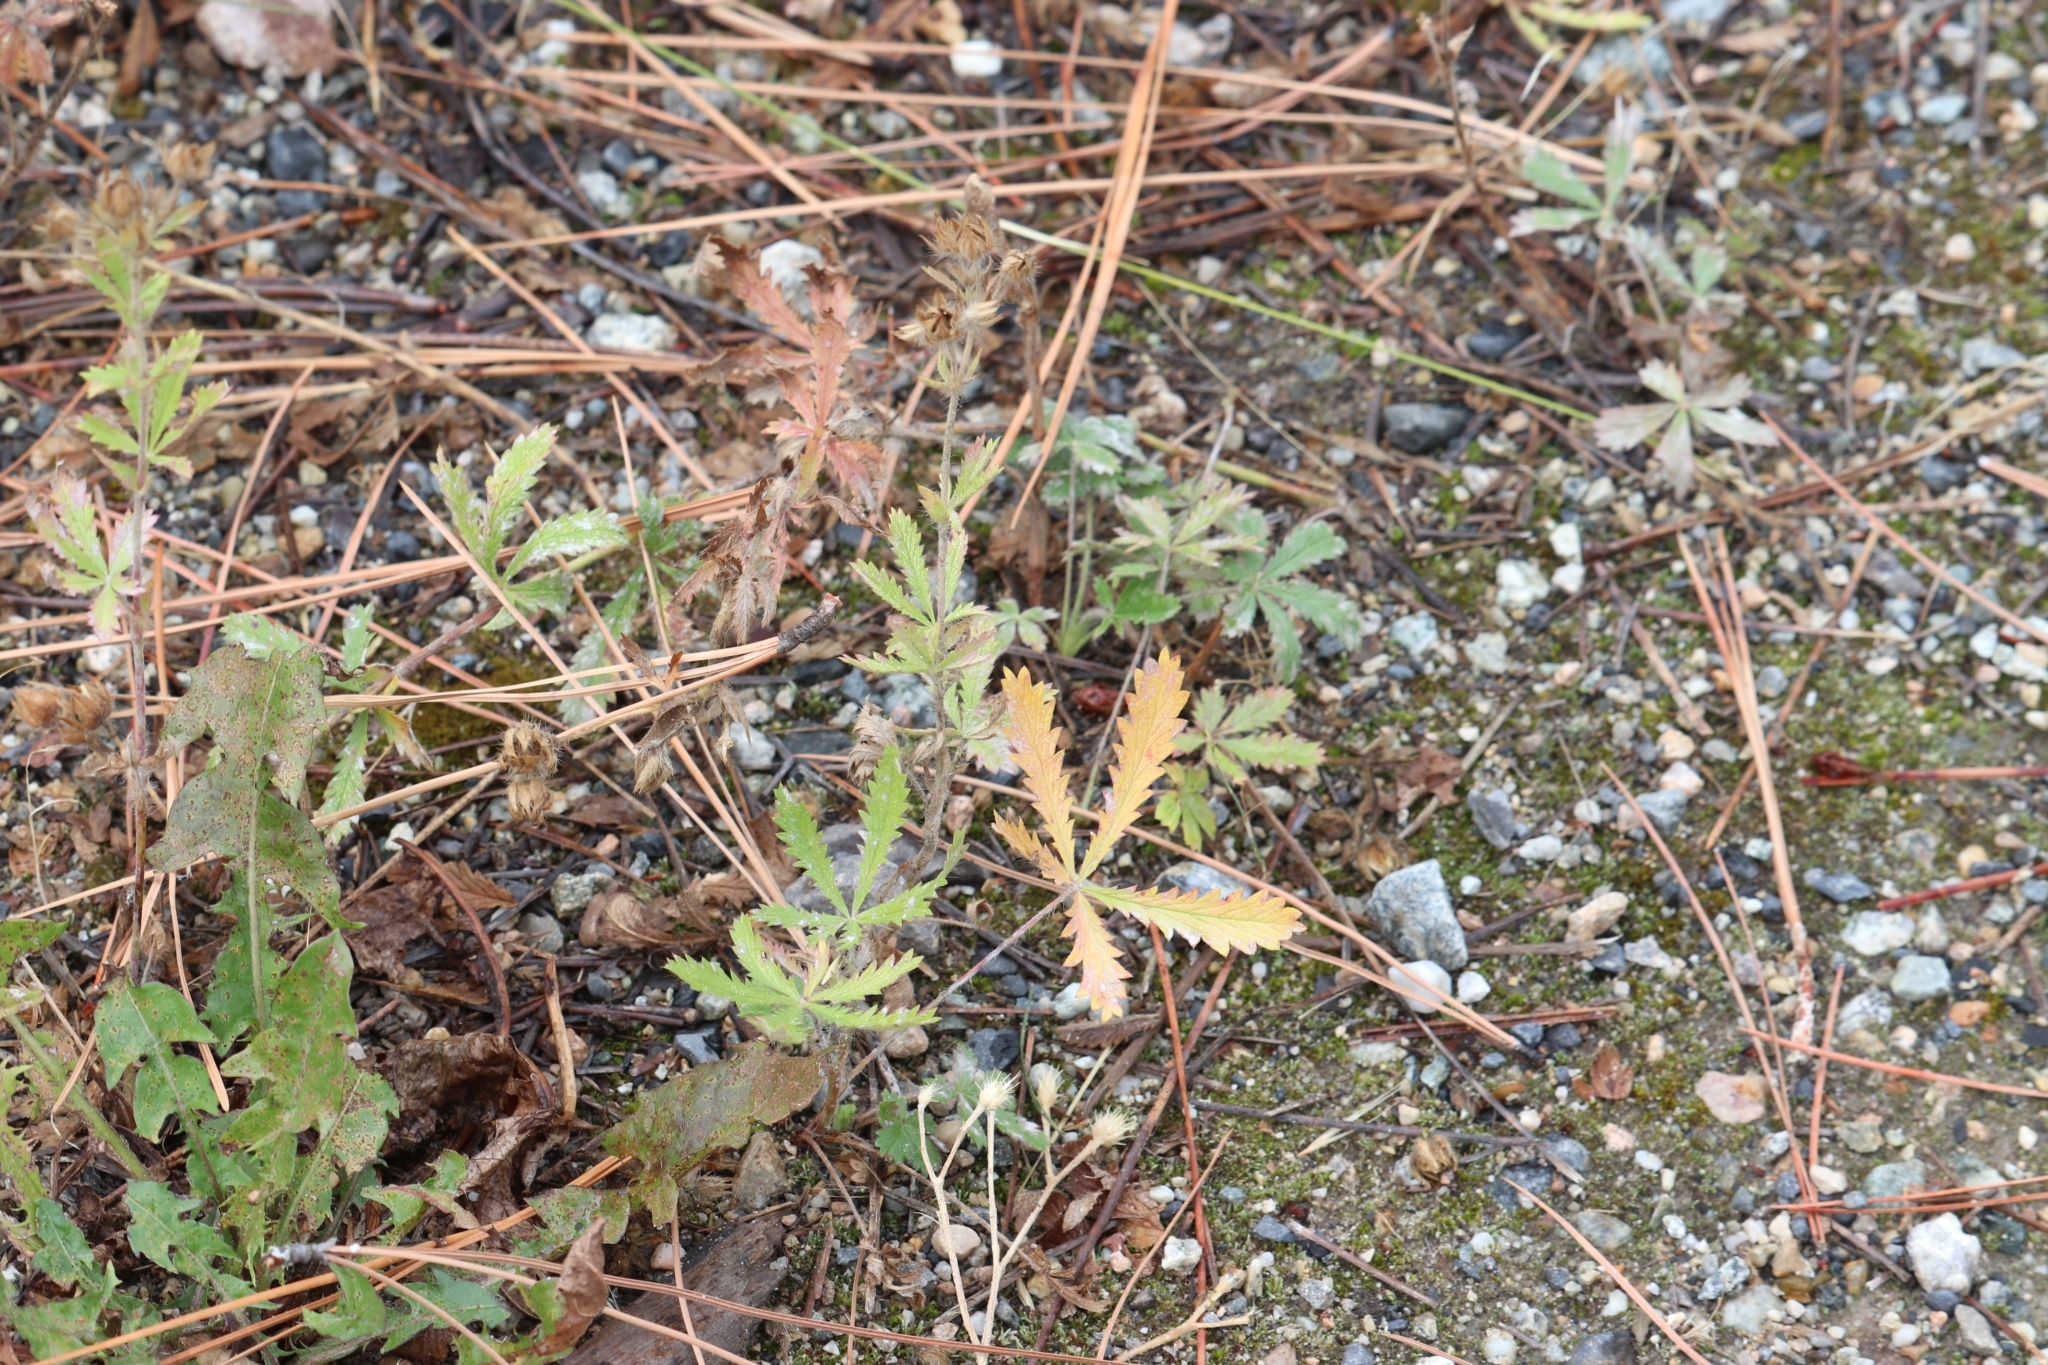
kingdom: Plantae
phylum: Tracheophyta
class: Magnoliopsida
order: Rosales
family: Rosaceae
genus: Potentilla
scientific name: Potentilla recta
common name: Sulphur cinquefoil
